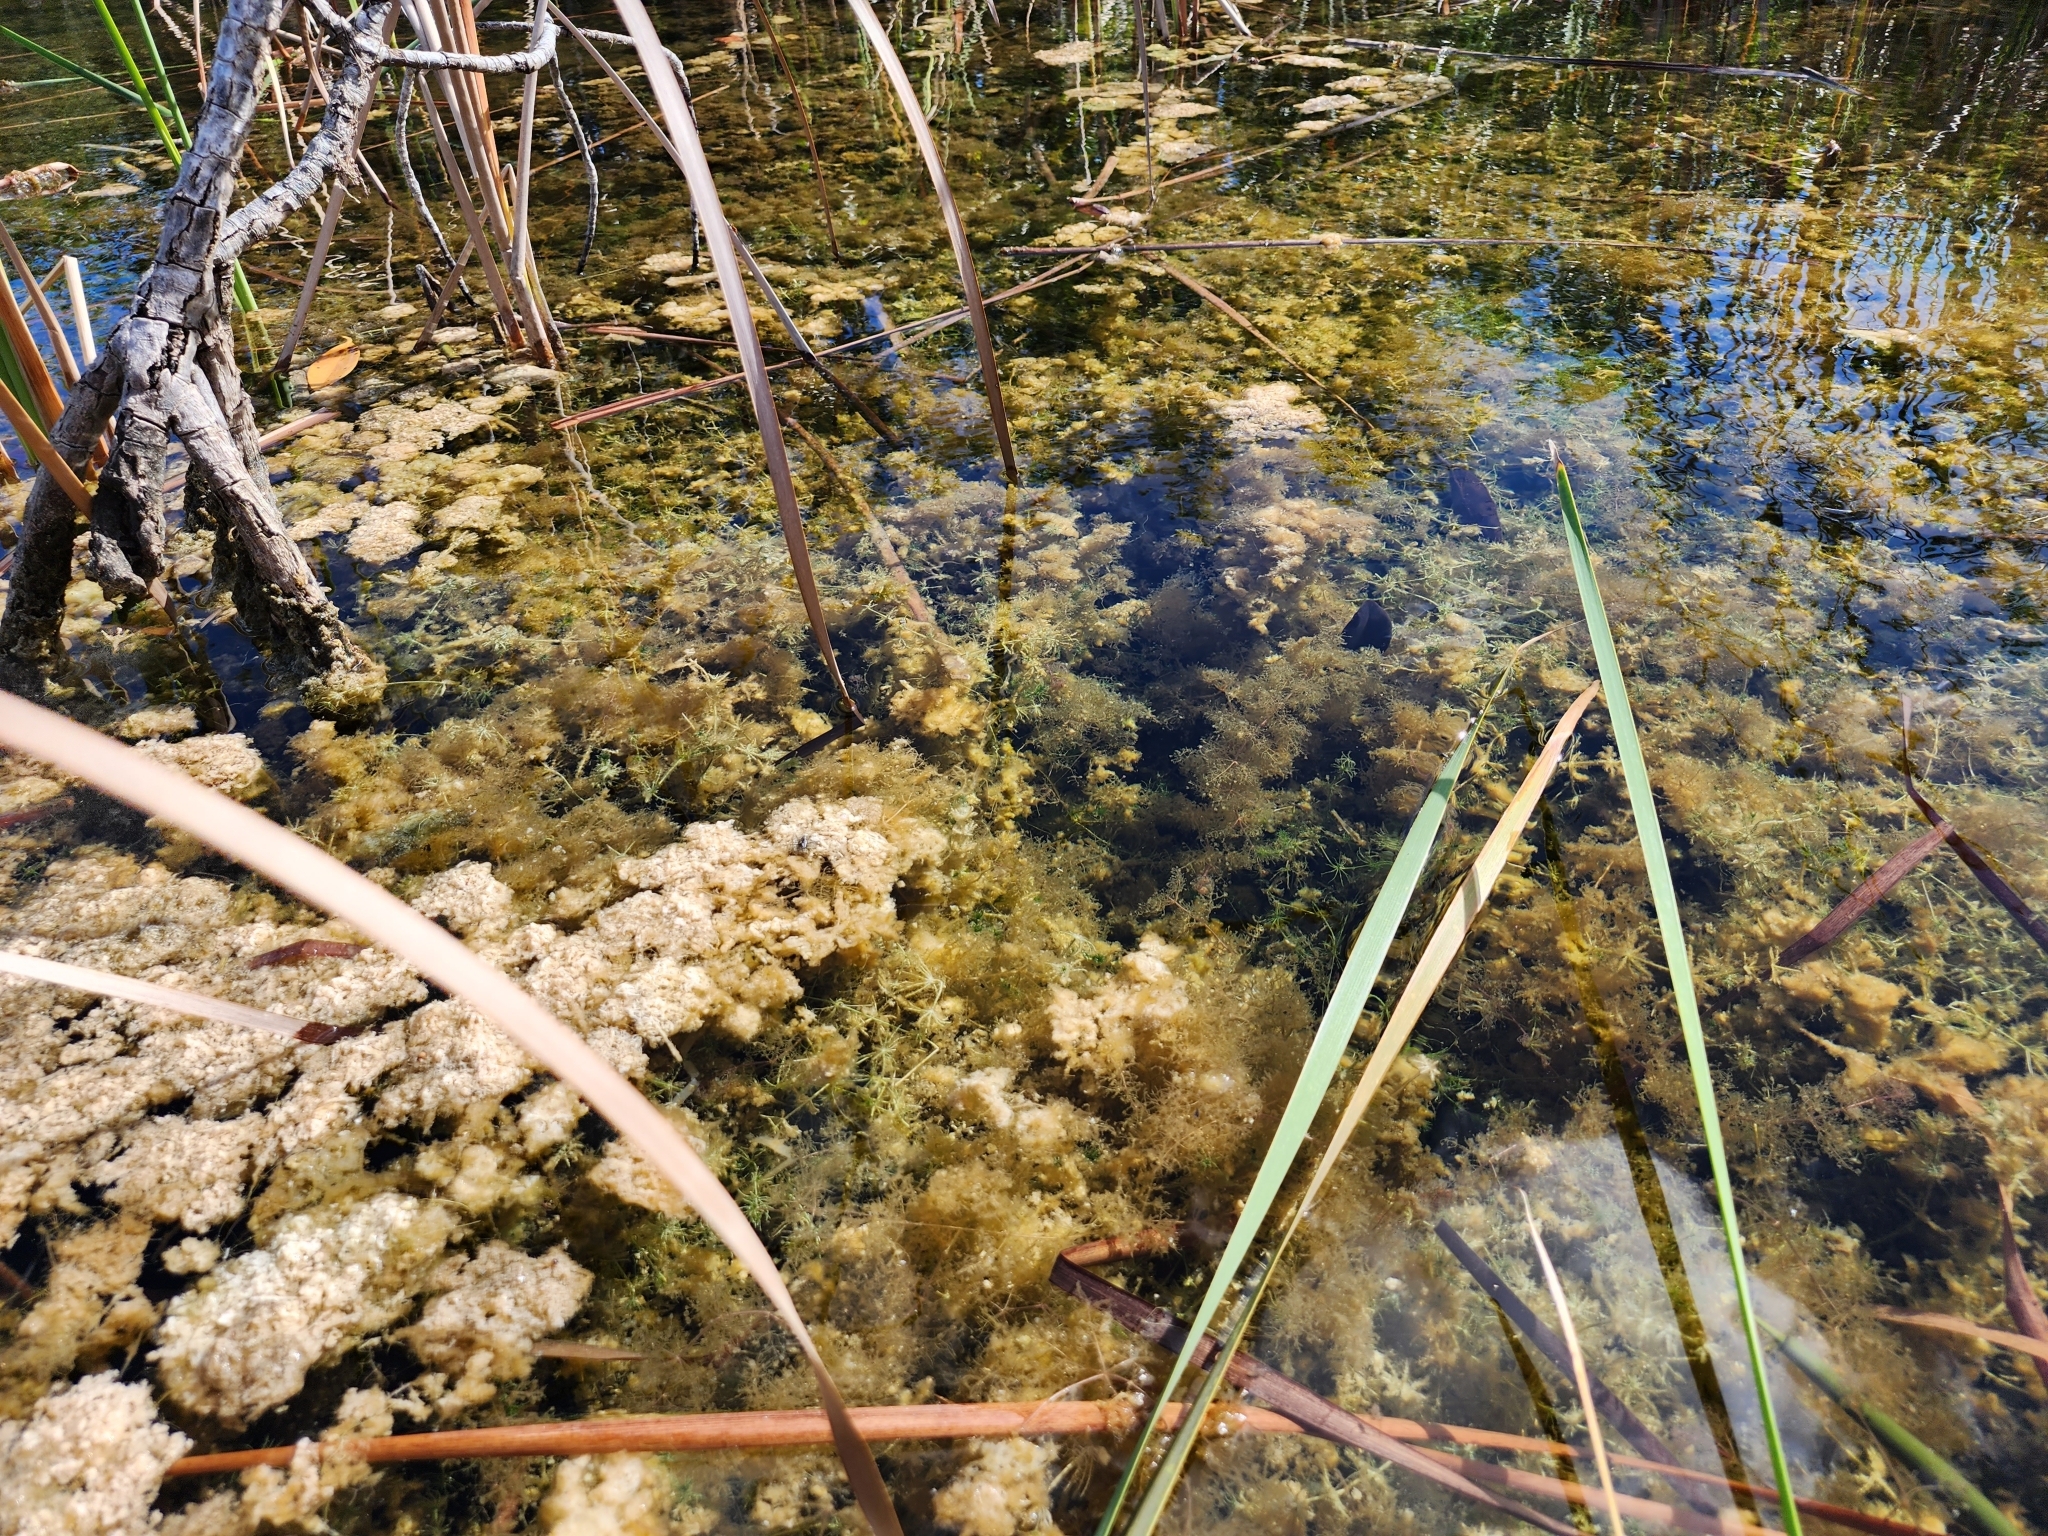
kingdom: Plantae
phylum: Tracheophyta
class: Magnoliopsida
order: Lamiales
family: Lentibulariaceae
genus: Utricularia
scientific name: Utricularia purpurea
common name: Eastern purple bladderwort
